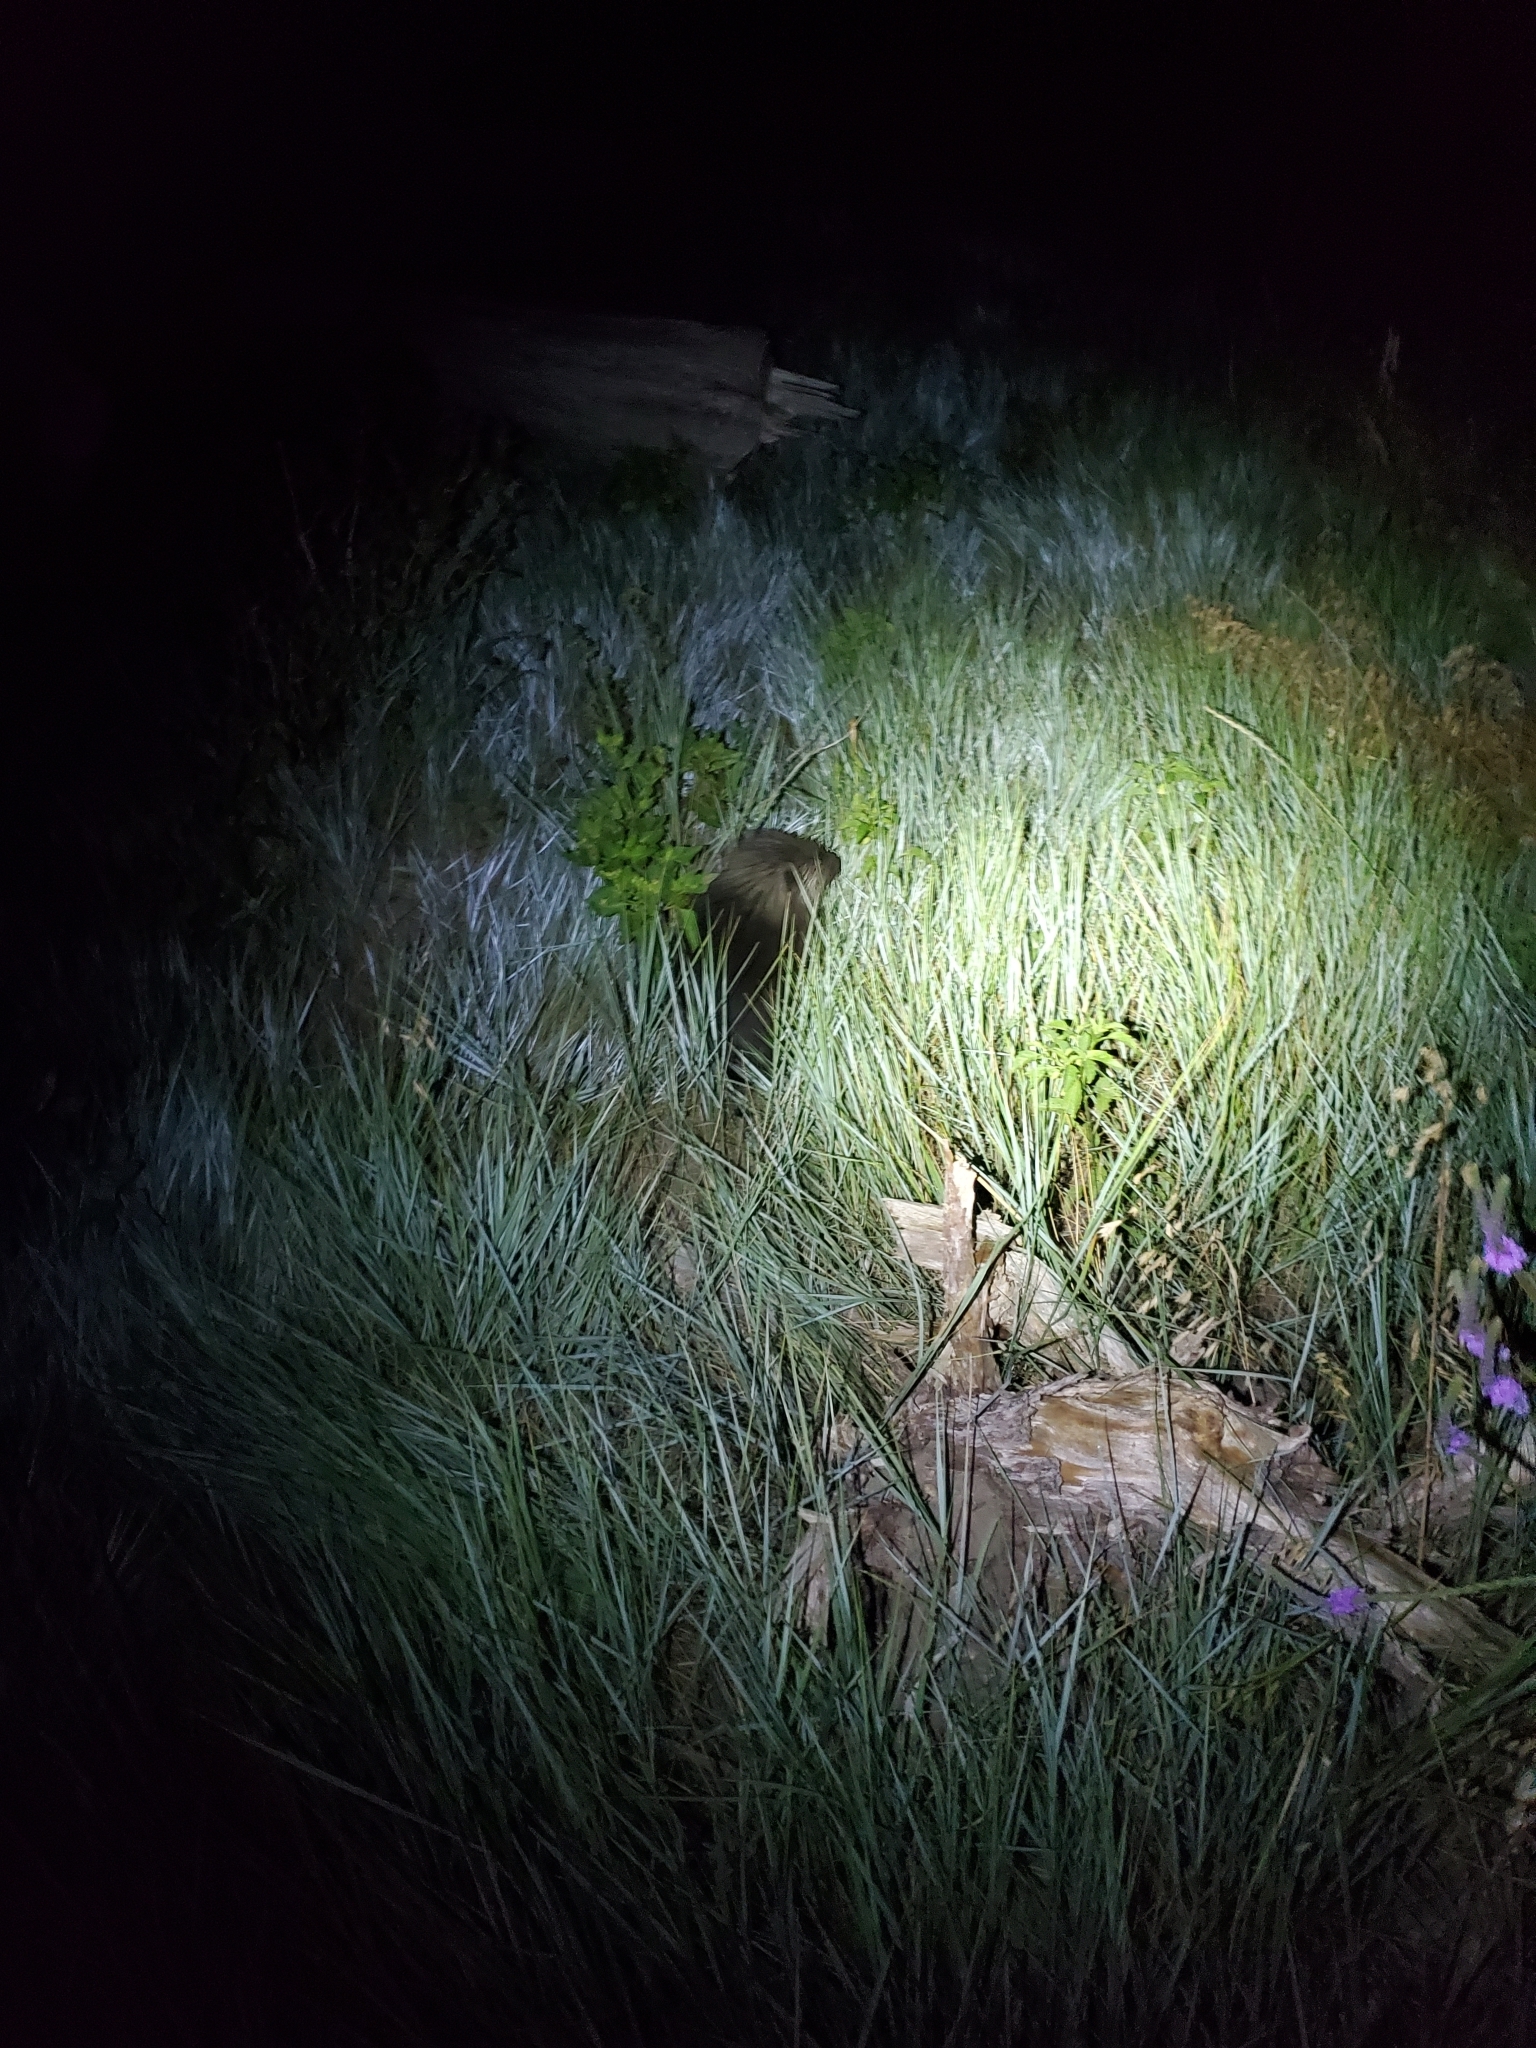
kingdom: Animalia
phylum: Chordata
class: Mammalia
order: Rodentia
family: Erethizontidae
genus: Erethizon
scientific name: Erethizon dorsatus
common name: North american porcupine
